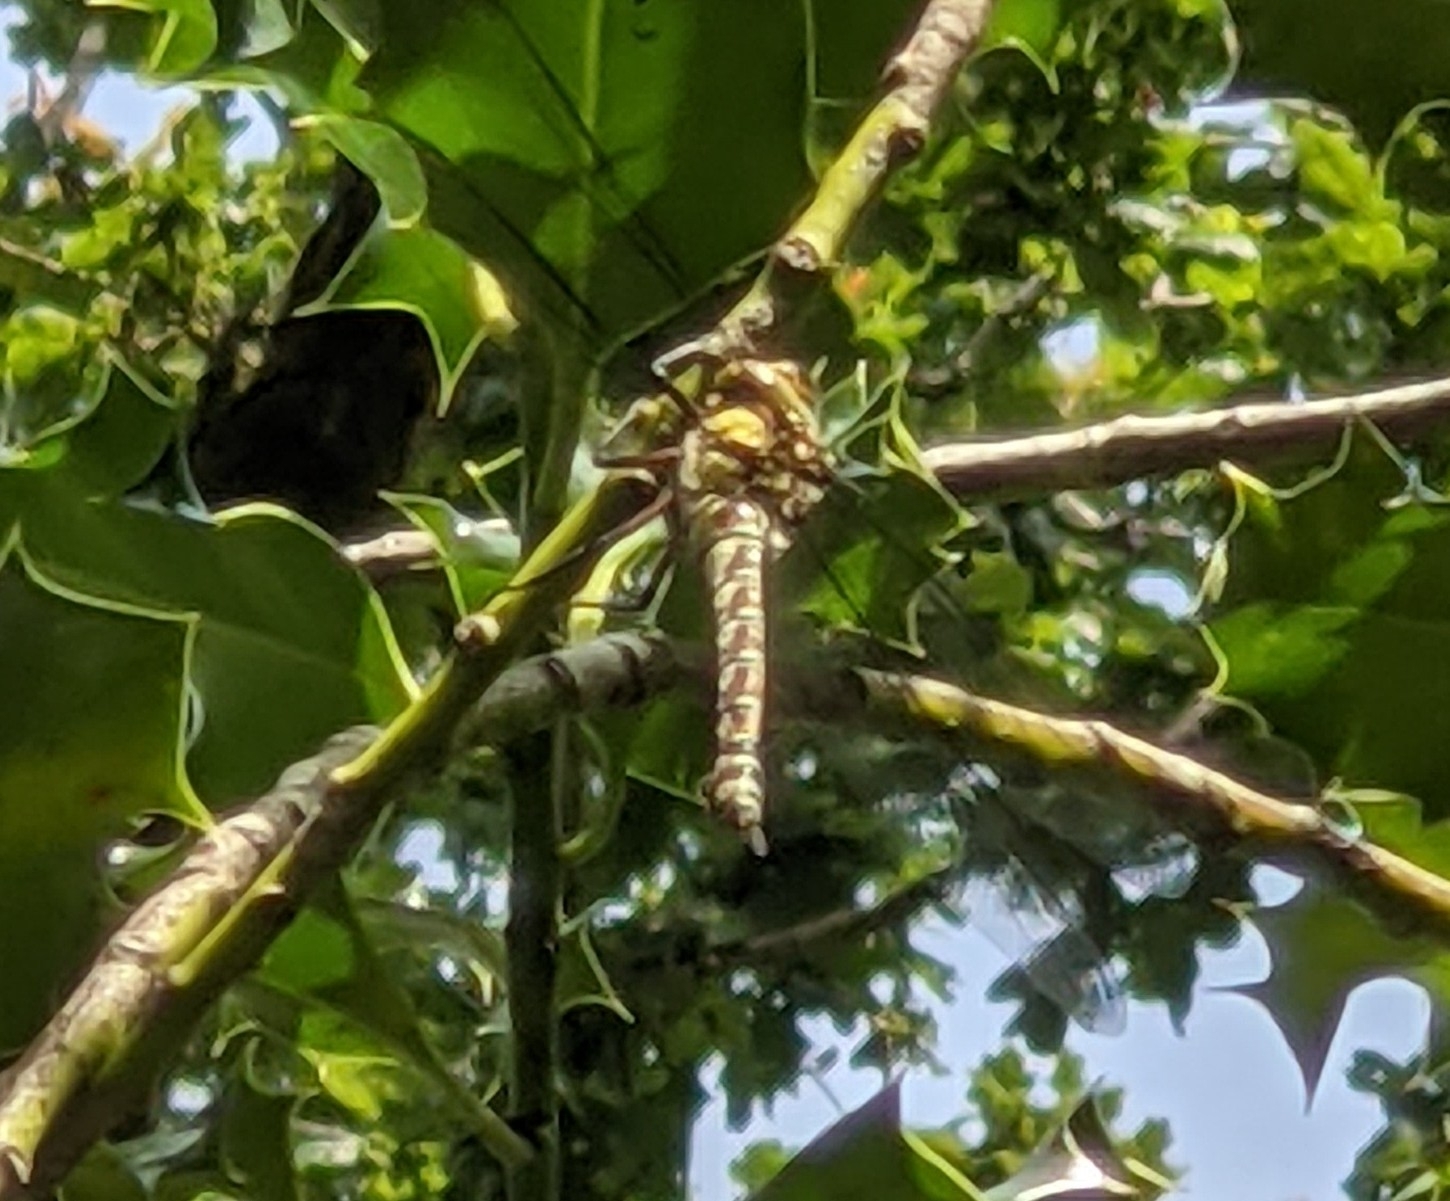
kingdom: Animalia
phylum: Arthropoda
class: Insecta
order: Odonata
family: Aeshnidae
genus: Aeshna
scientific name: Aeshna cyanea
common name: Southern hawker
